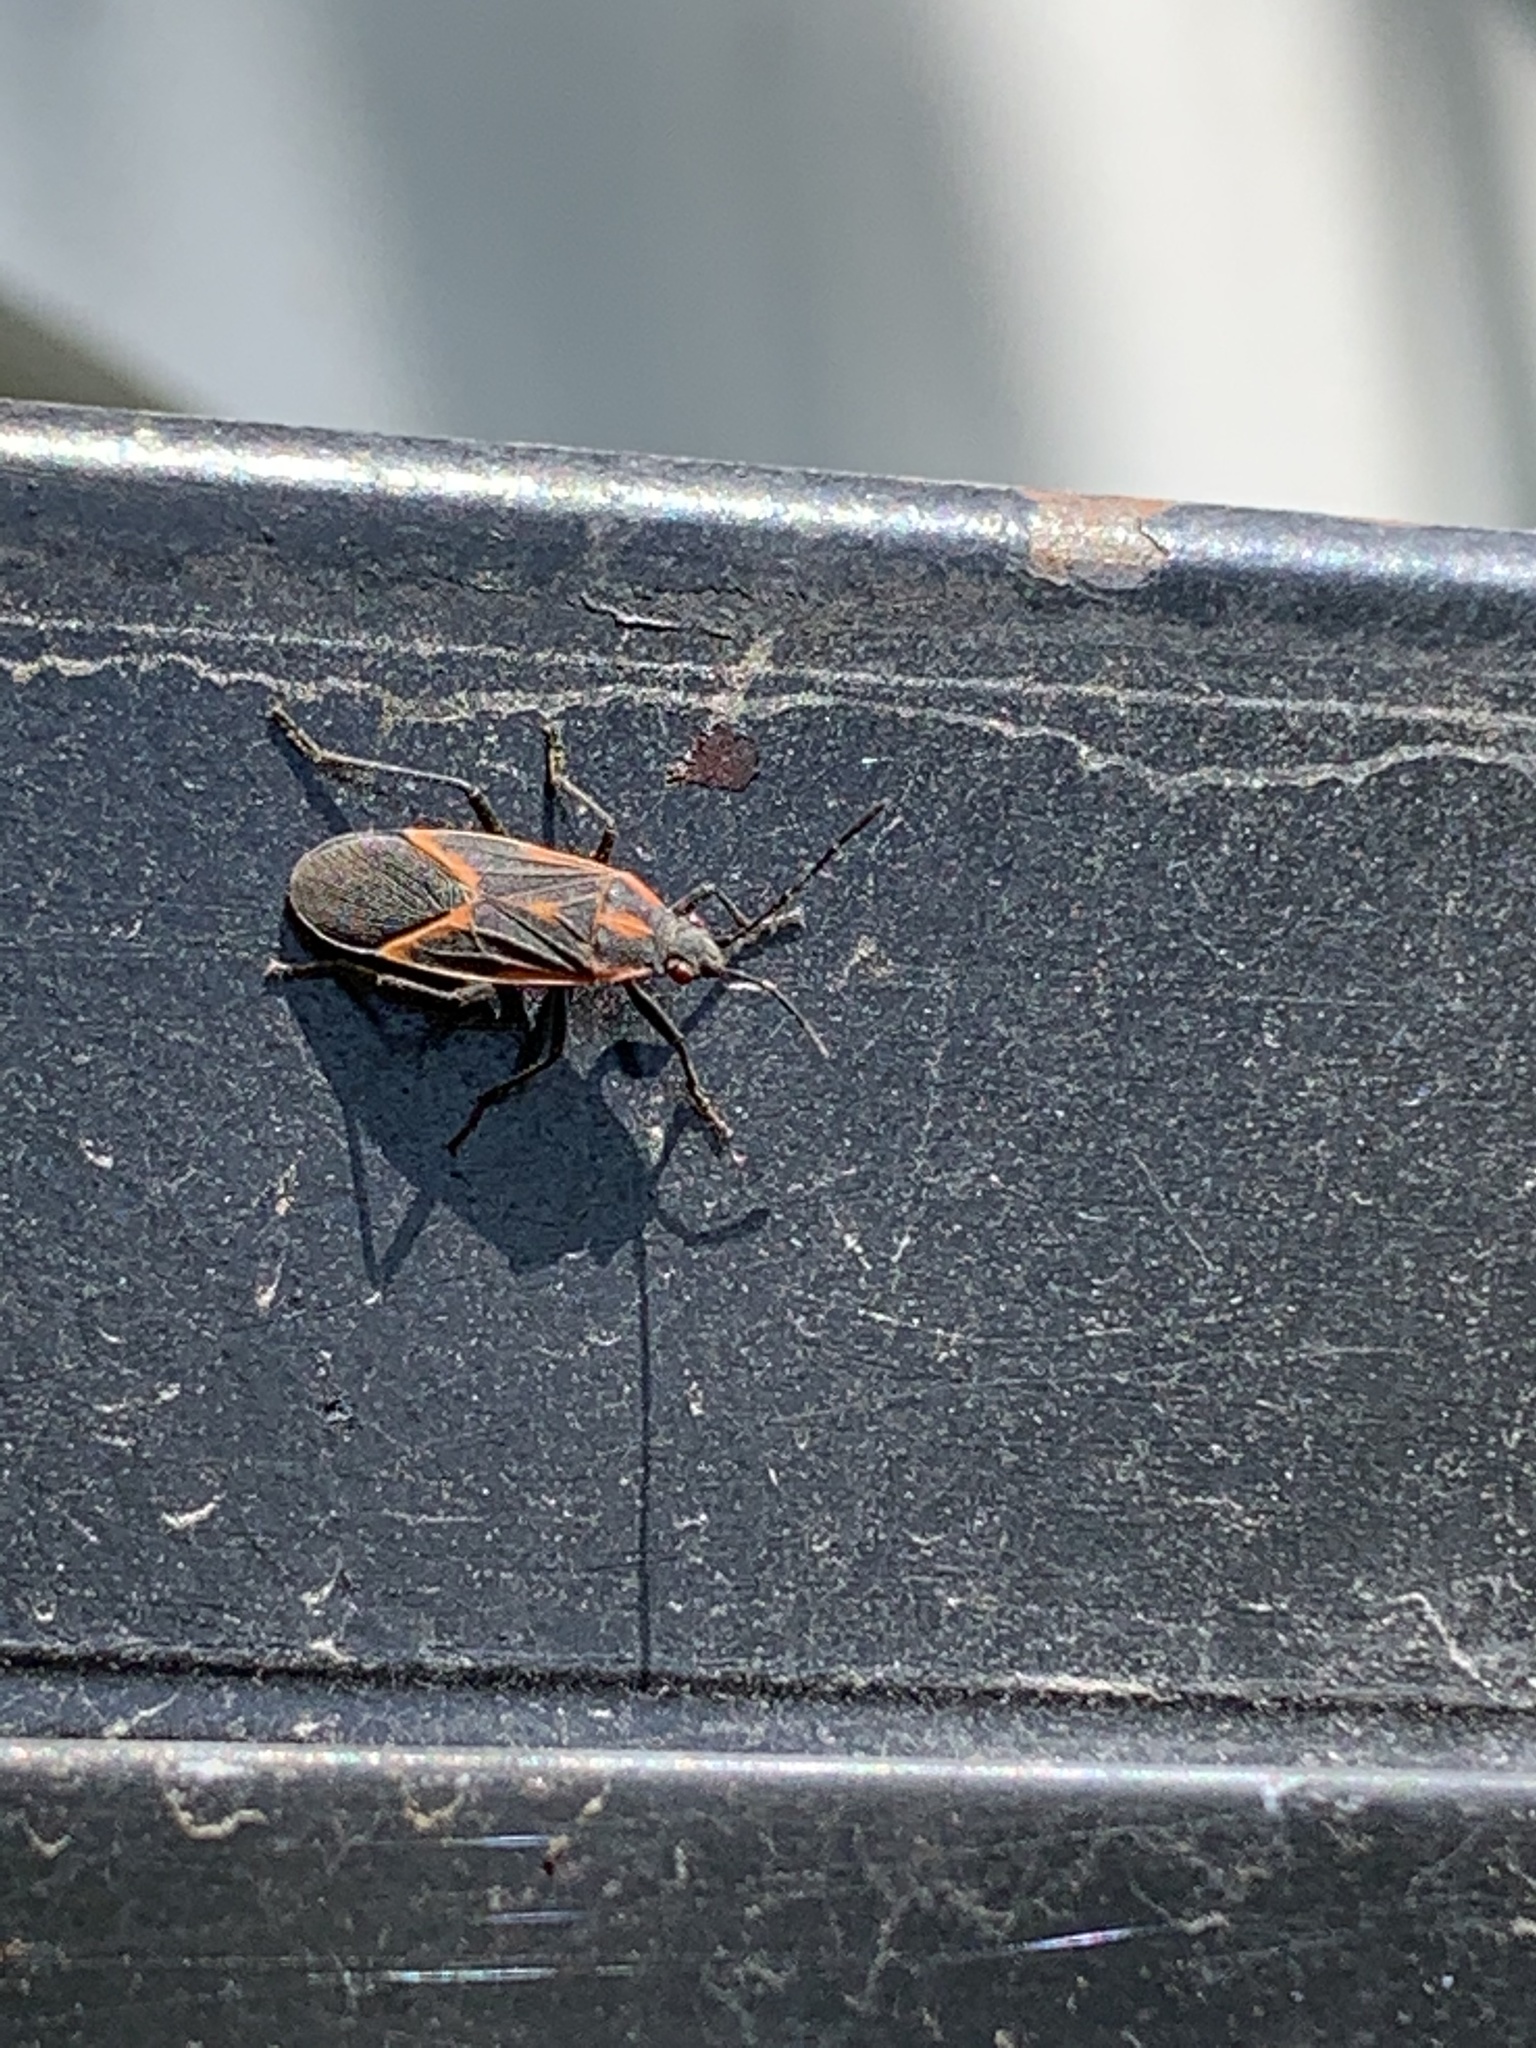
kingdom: Animalia
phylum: Arthropoda
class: Insecta
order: Hemiptera
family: Rhopalidae
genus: Boisea
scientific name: Boisea trivittata
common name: Boxelder bug
